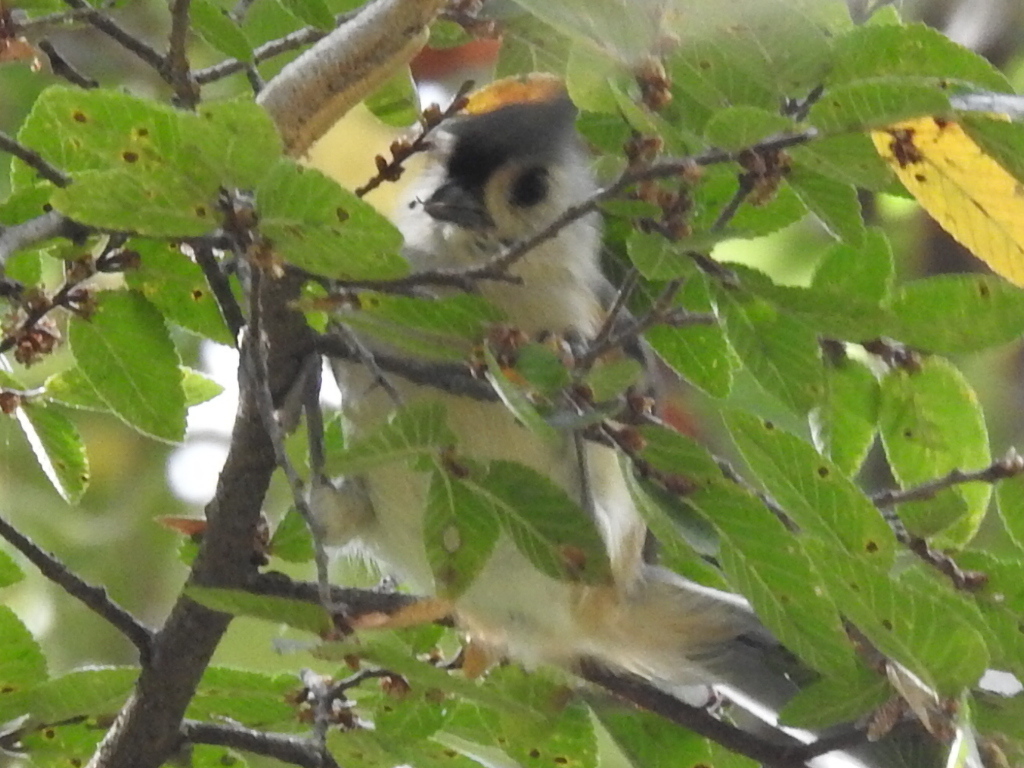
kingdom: Animalia
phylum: Chordata
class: Aves
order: Passeriformes
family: Paridae
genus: Baeolophus
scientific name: Baeolophus bicolor
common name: Tufted titmouse
